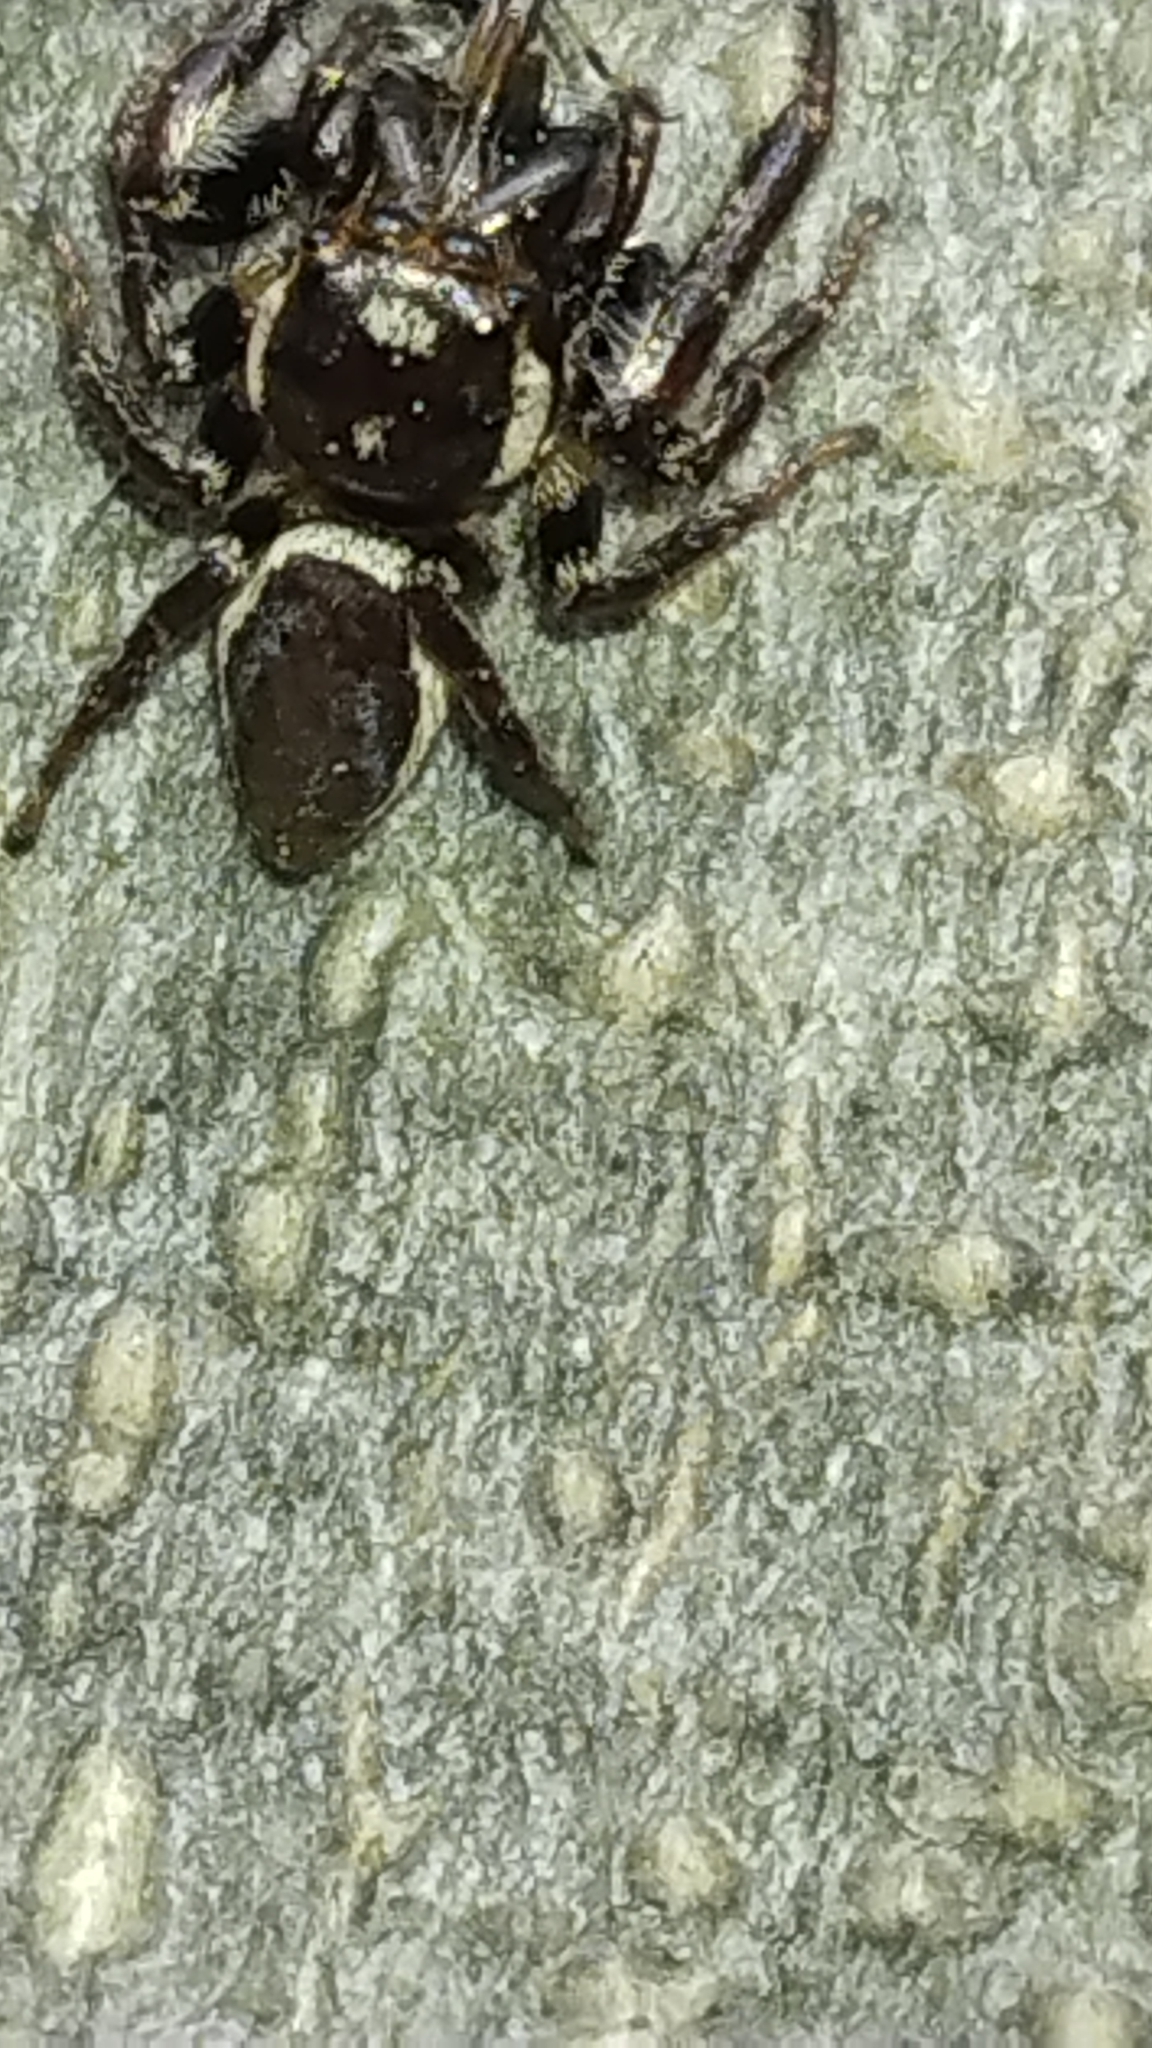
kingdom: Animalia
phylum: Arthropoda
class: Arachnida
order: Araneae
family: Salticidae
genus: Eris
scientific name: Eris militaris
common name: Bronze jumper
